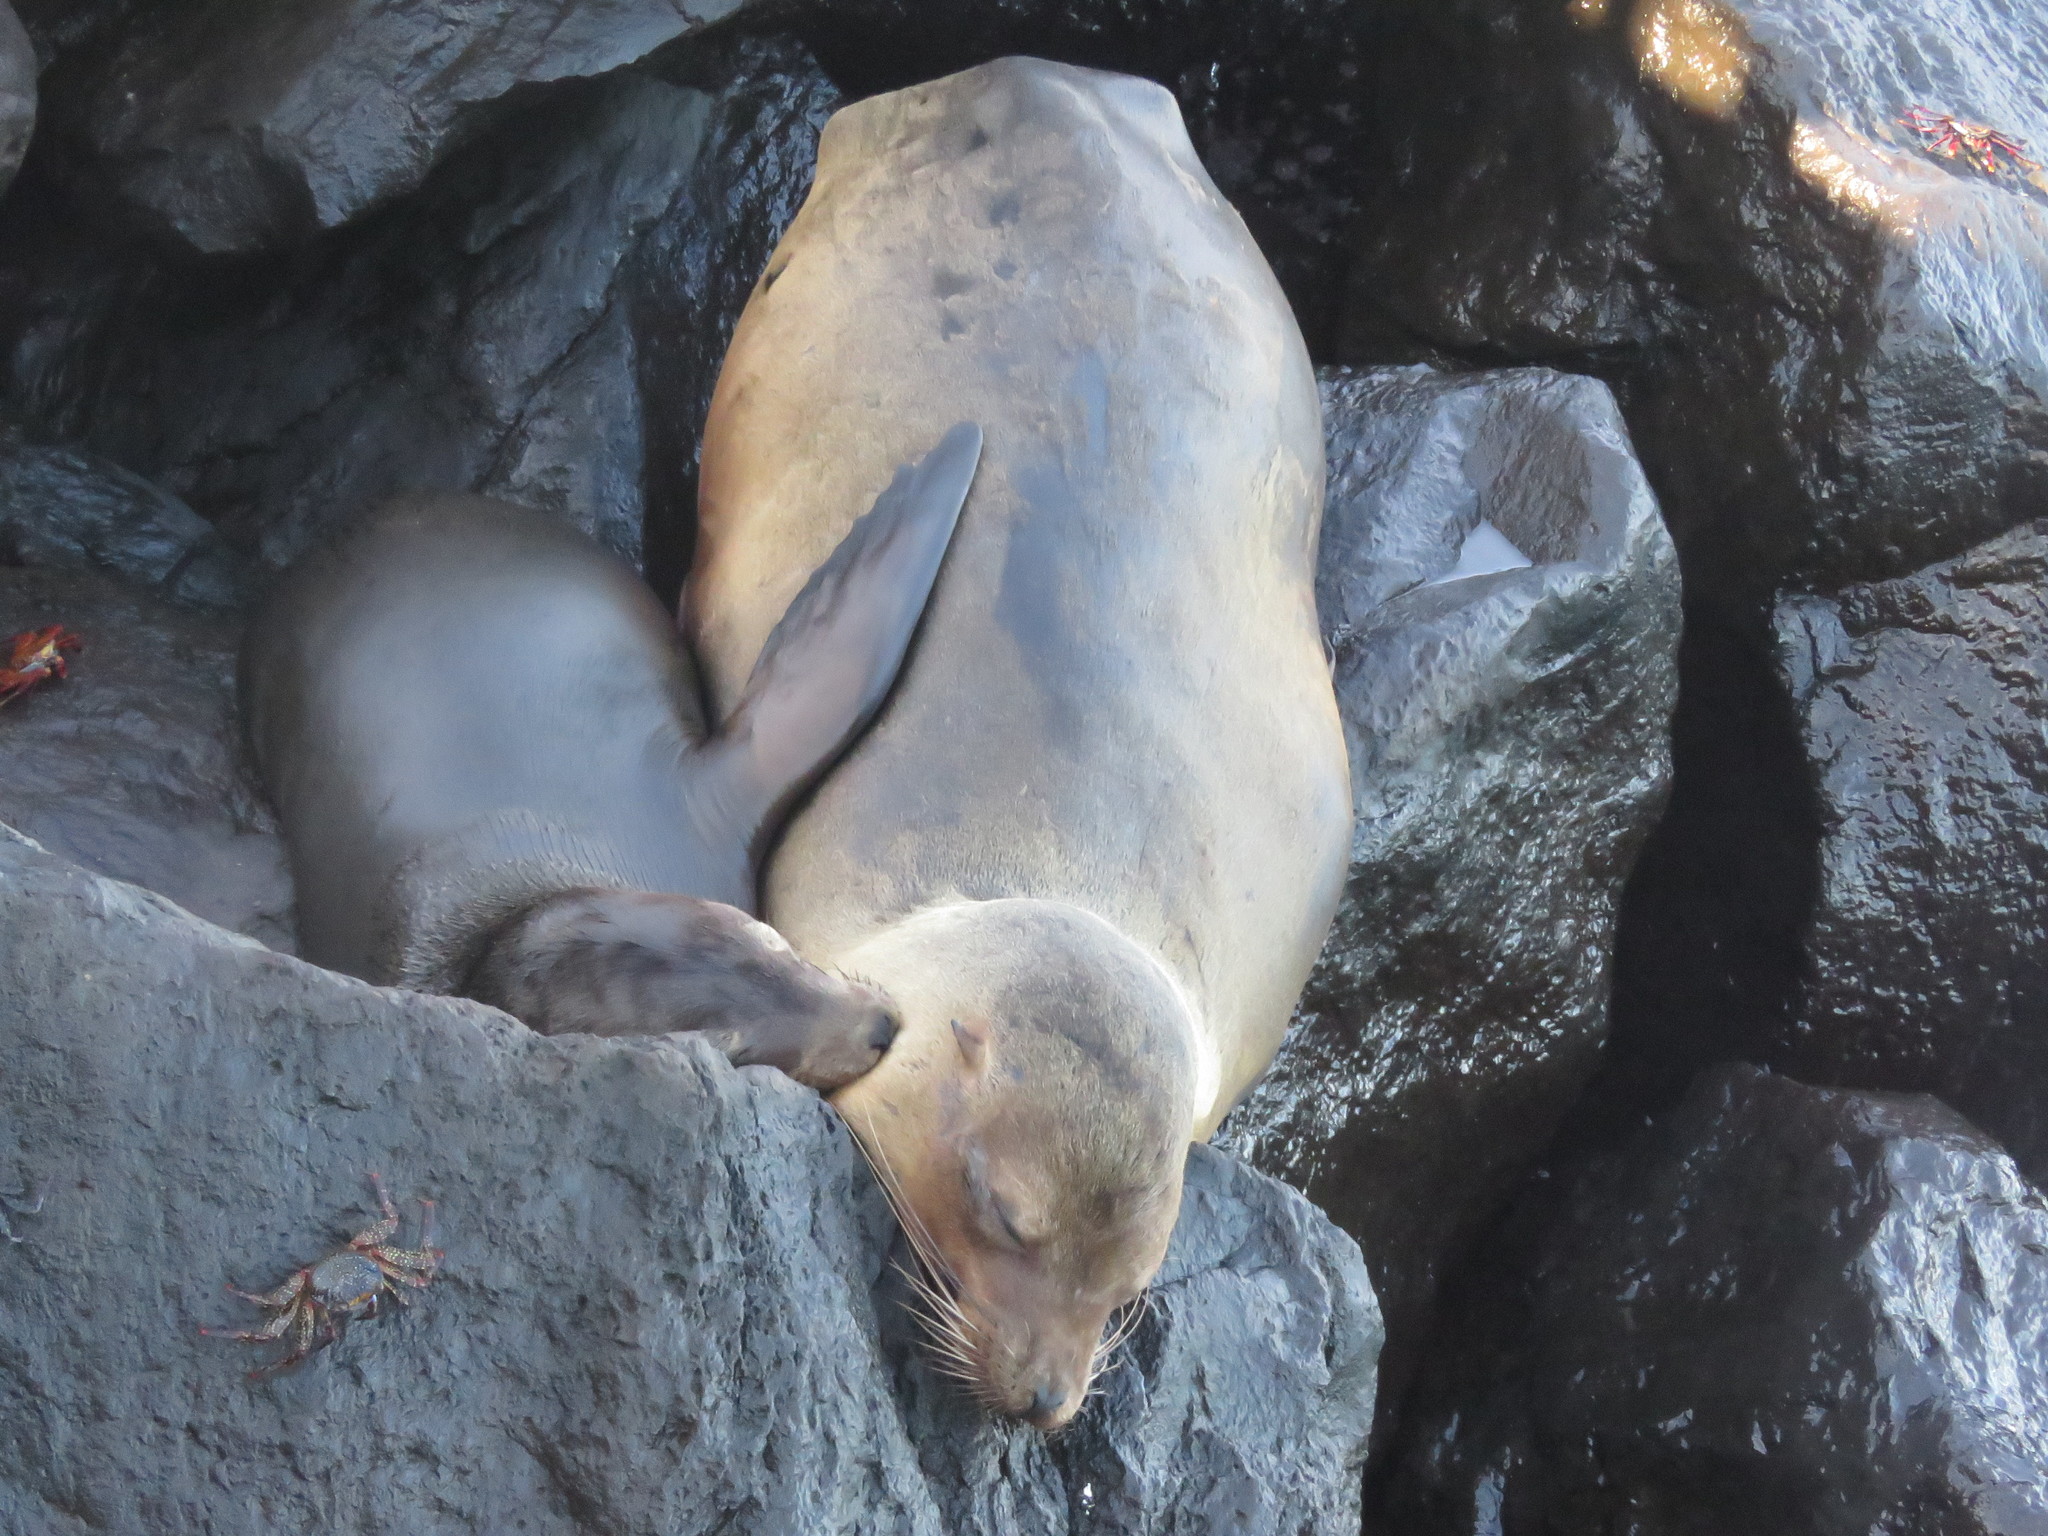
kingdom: Animalia
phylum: Chordata
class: Mammalia
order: Carnivora
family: Otariidae
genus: Zalophus
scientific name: Zalophus wollebaeki
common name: Galapagos sea lion
